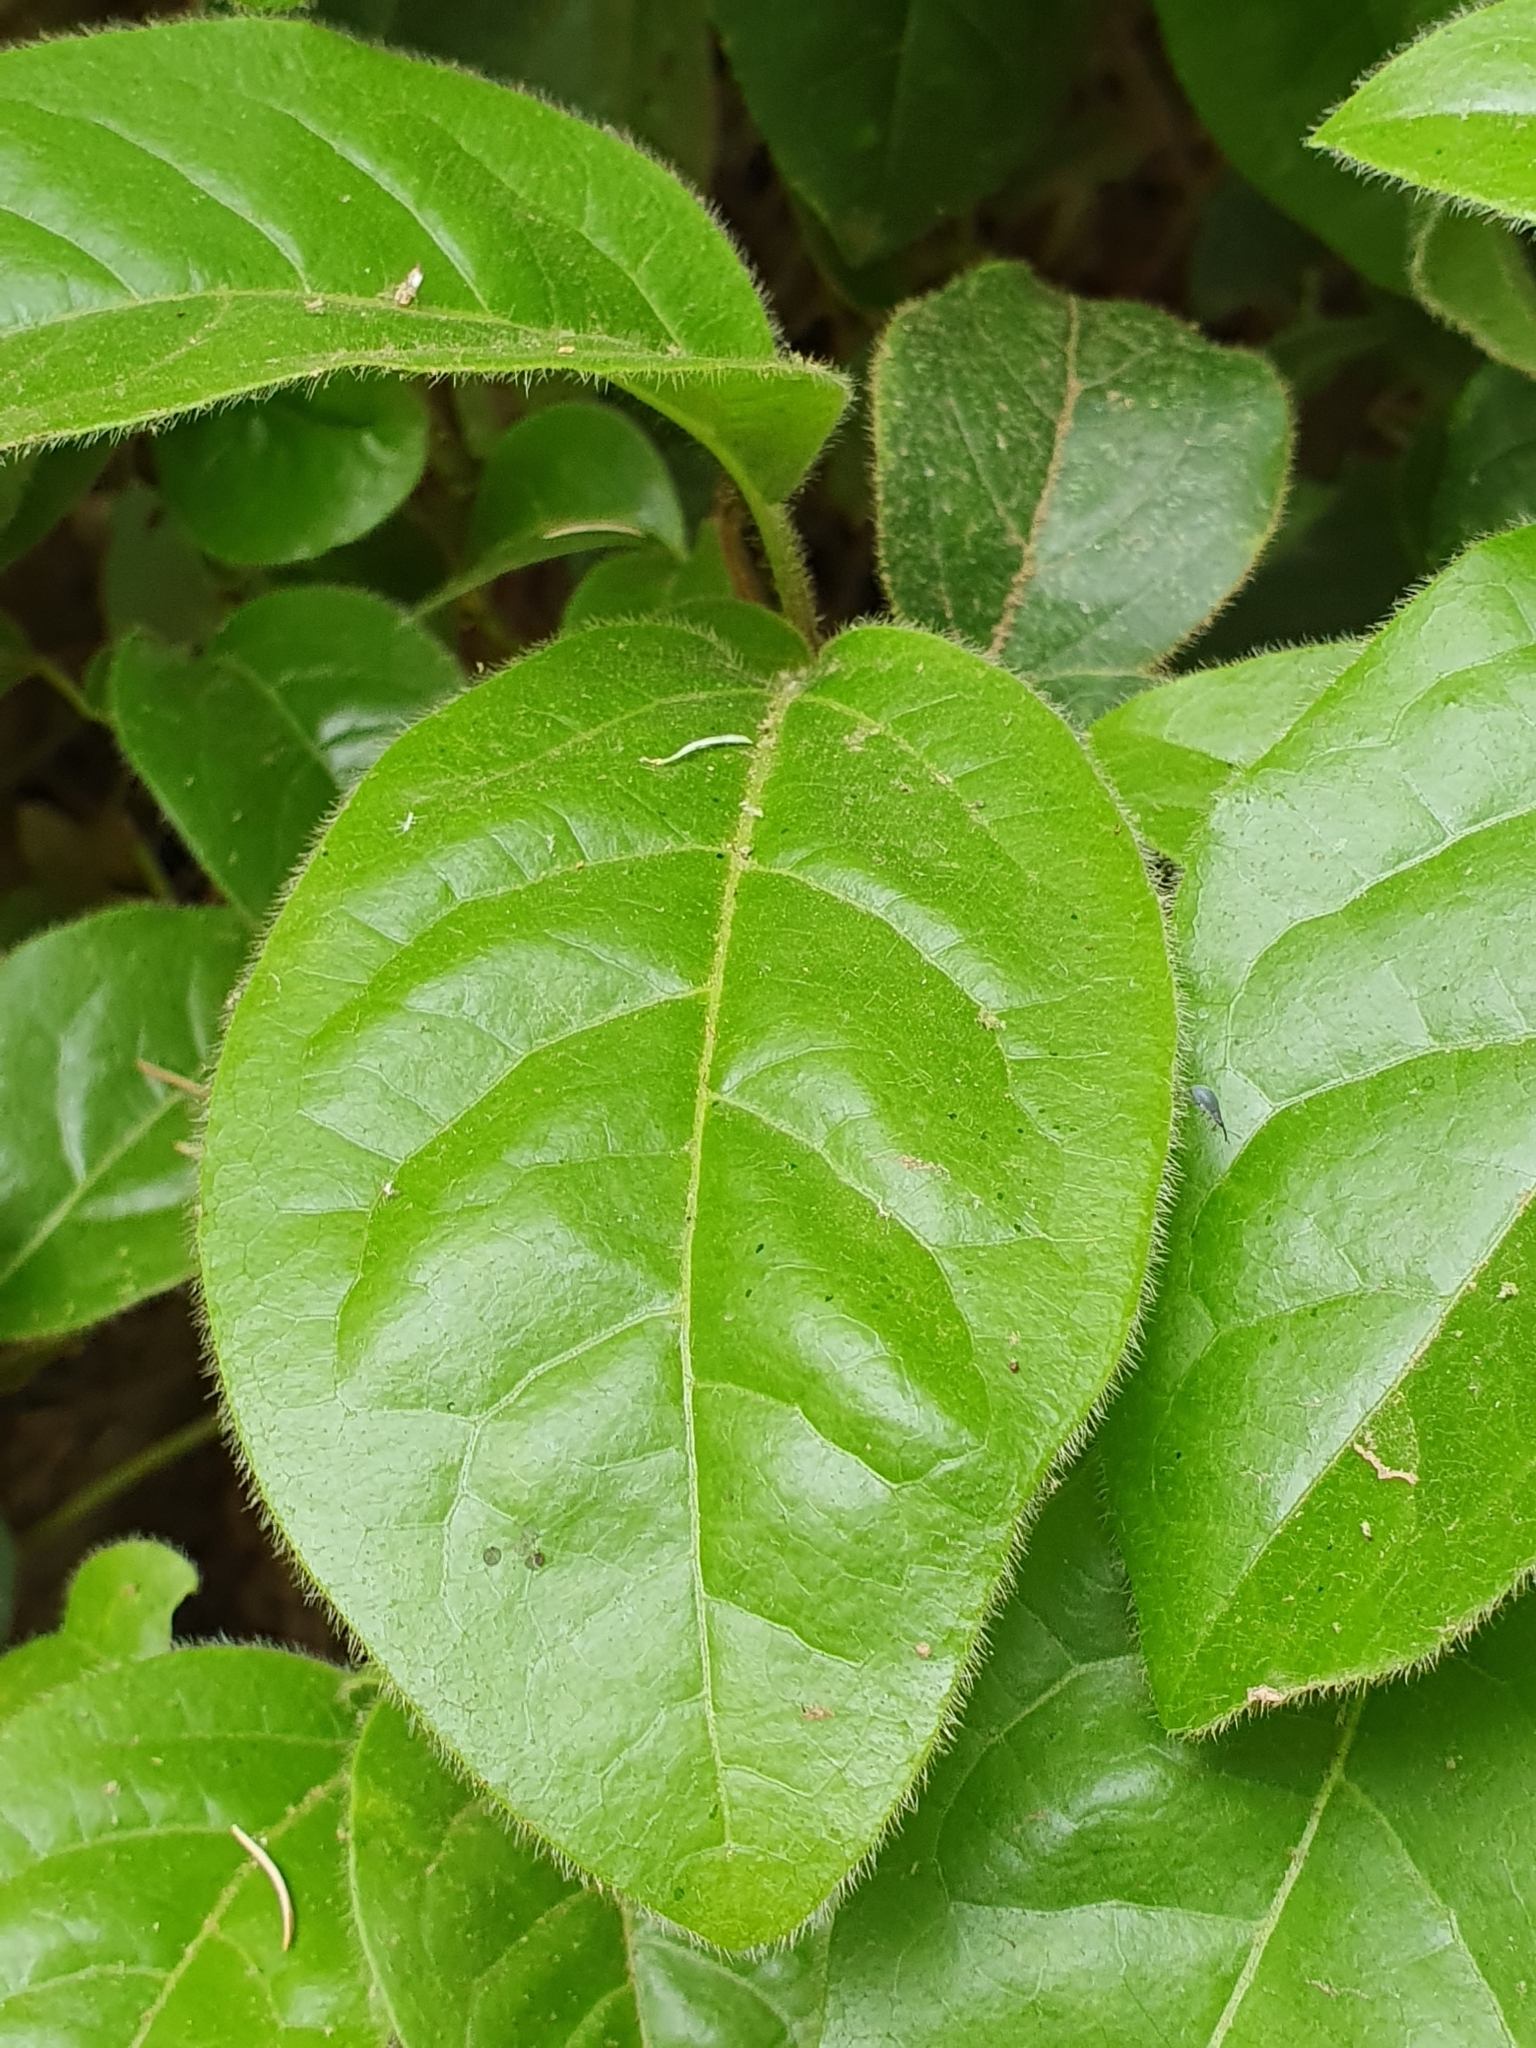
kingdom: Plantae
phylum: Tracheophyta
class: Magnoliopsida
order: Dipsacales
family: Viburnaceae
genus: Viburnum
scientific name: Viburnum tinus
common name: Laurustinus
